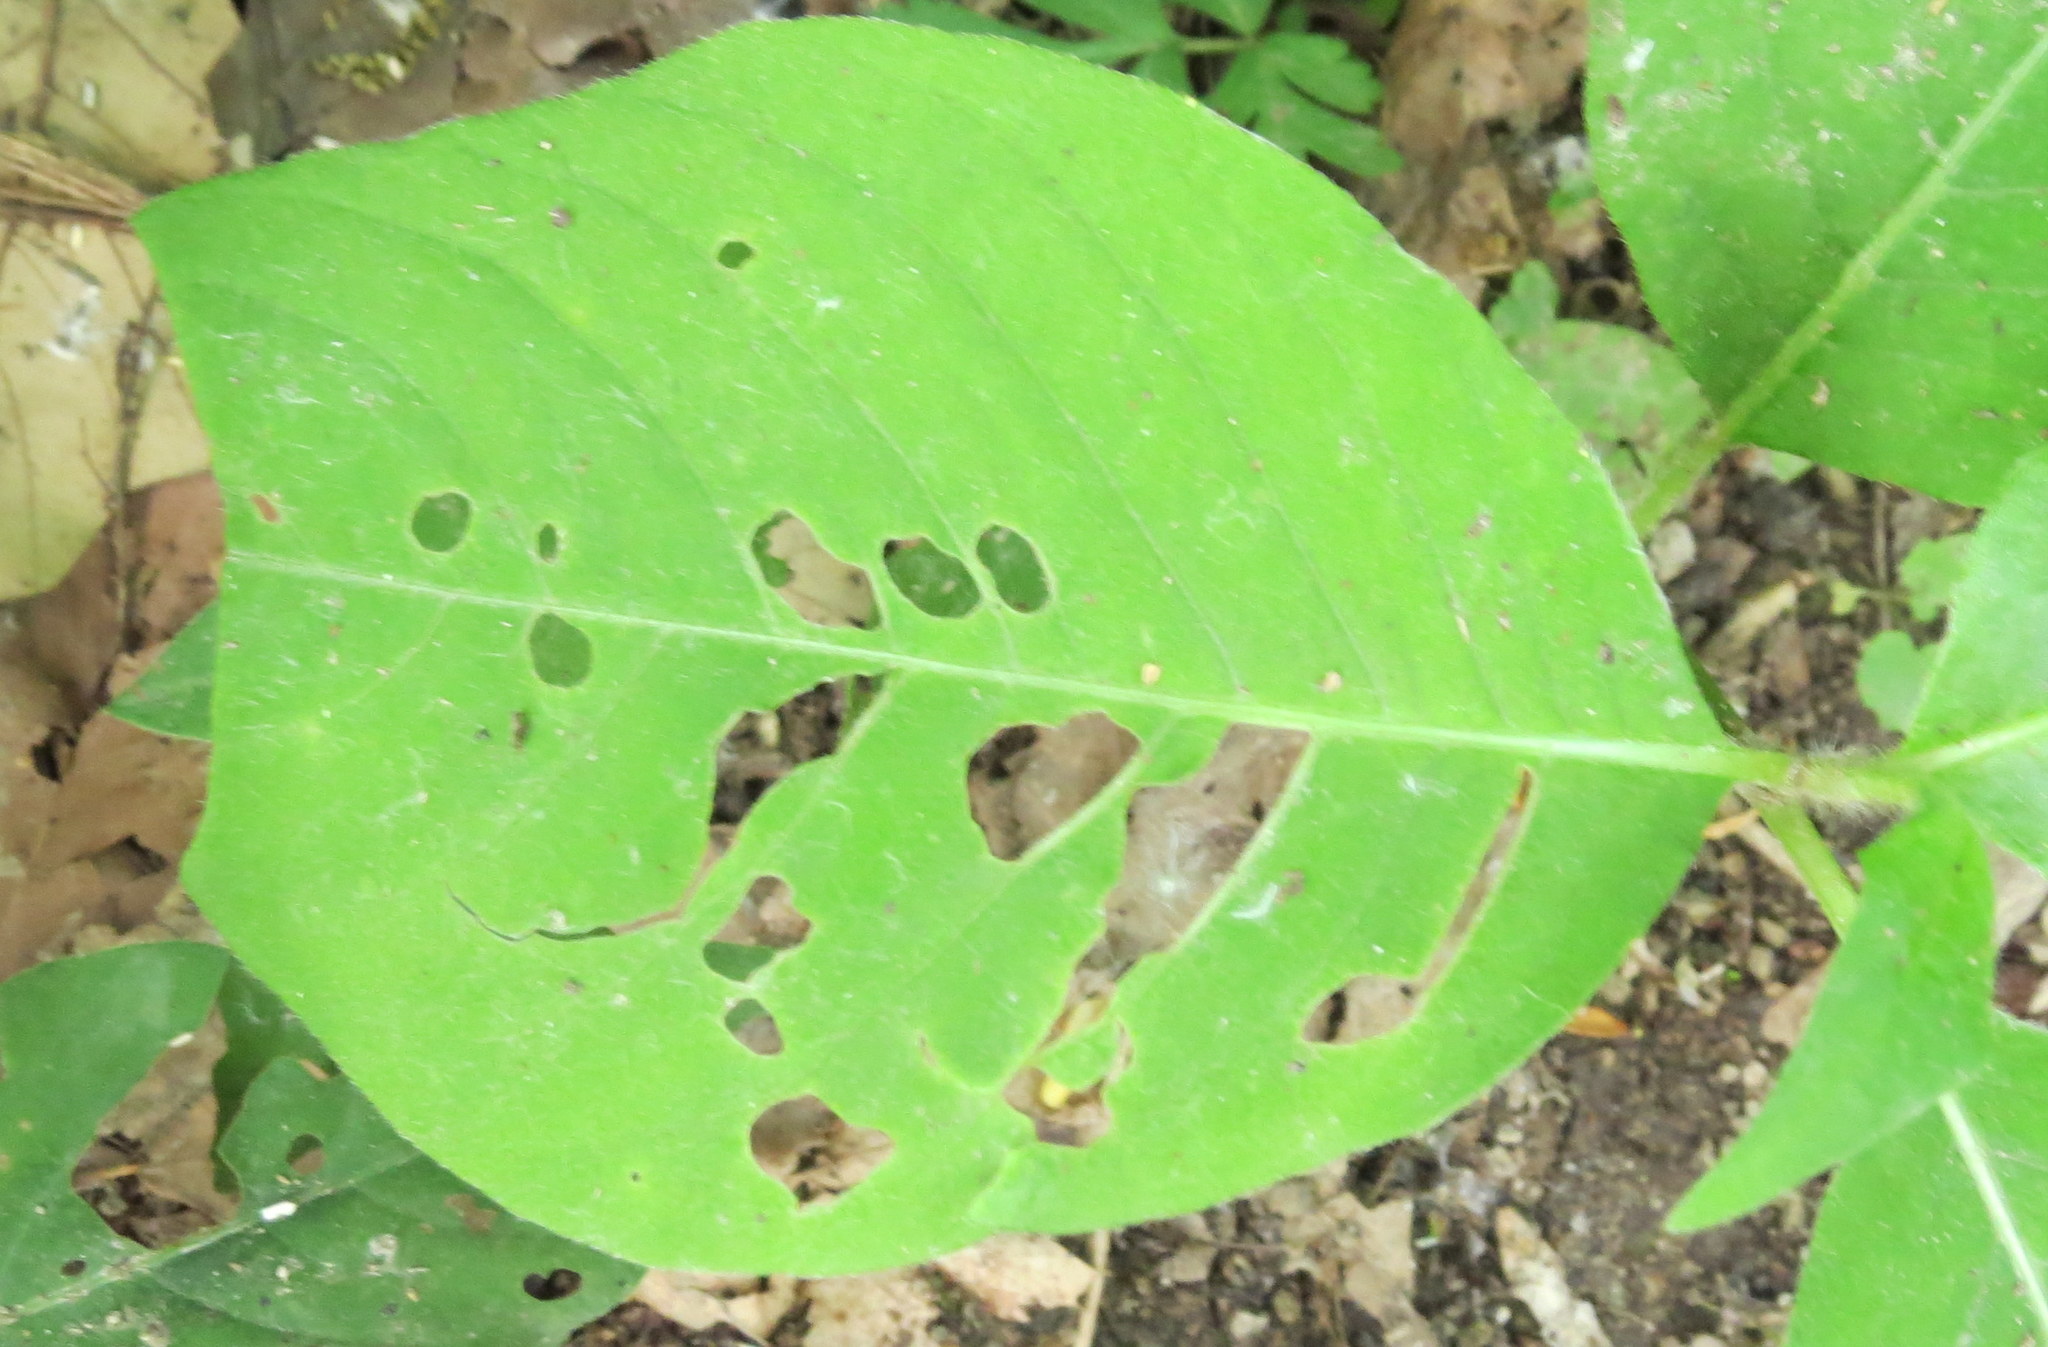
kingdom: Plantae
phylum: Tracheophyta
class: Magnoliopsida
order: Caryophyllales
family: Polygonaceae
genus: Persicaria
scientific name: Persicaria virginiana
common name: Jumpseed
